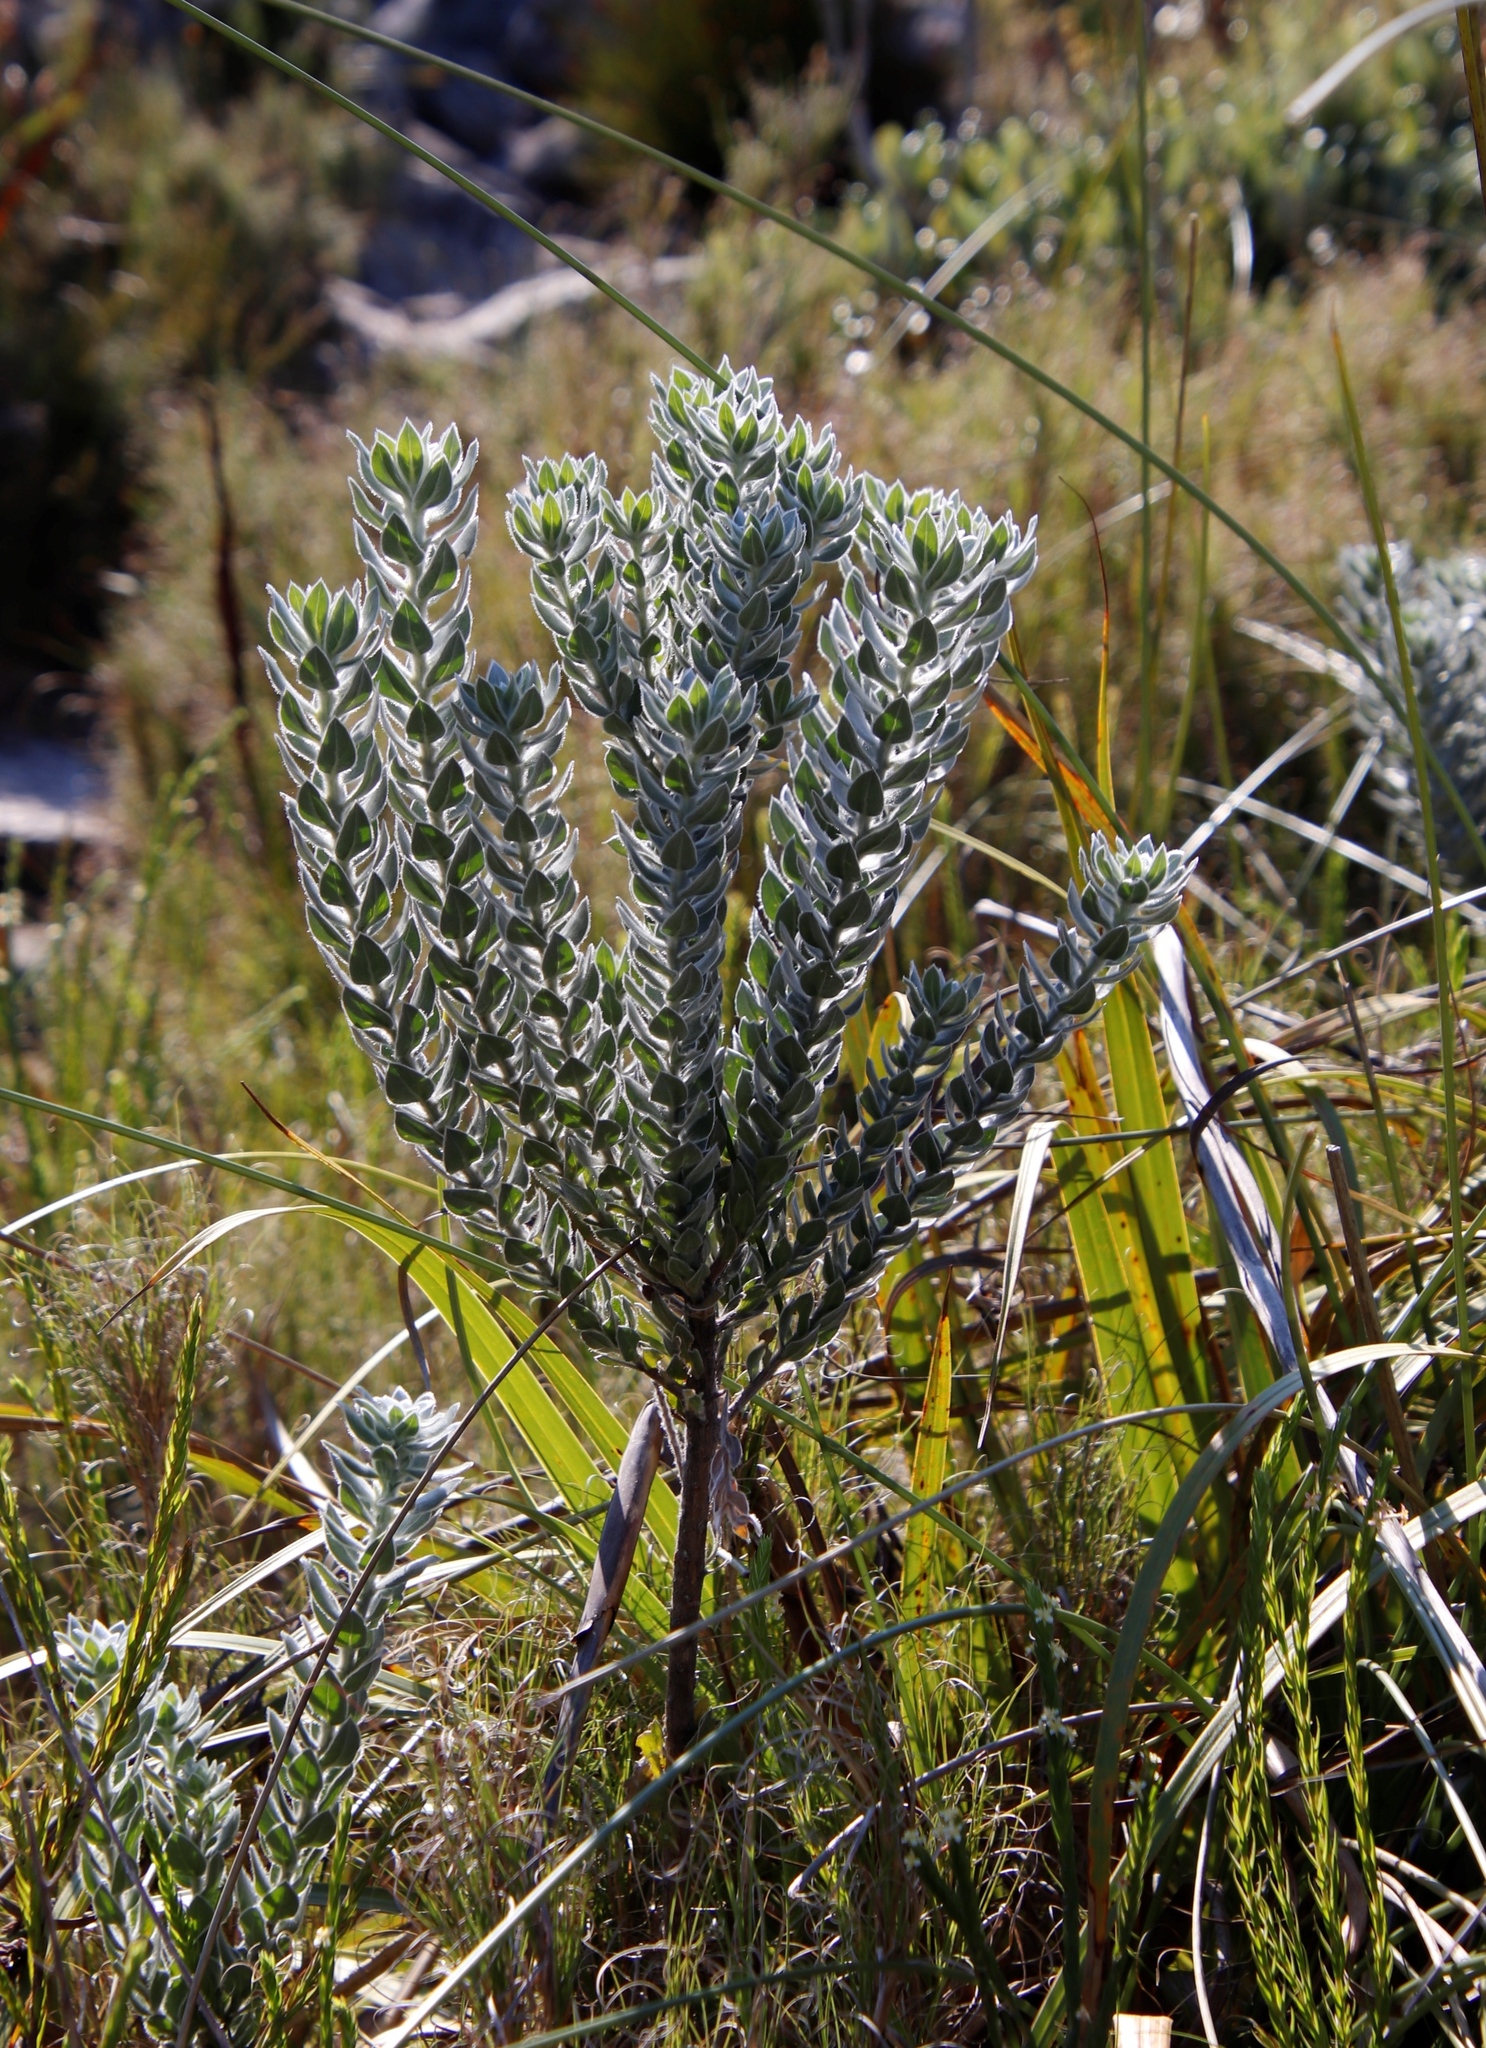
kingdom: Plantae
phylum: Tracheophyta
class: Magnoliopsida
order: Fabales
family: Fabaceae
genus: Xiphotheca
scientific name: Xiphotheca fruticosa
